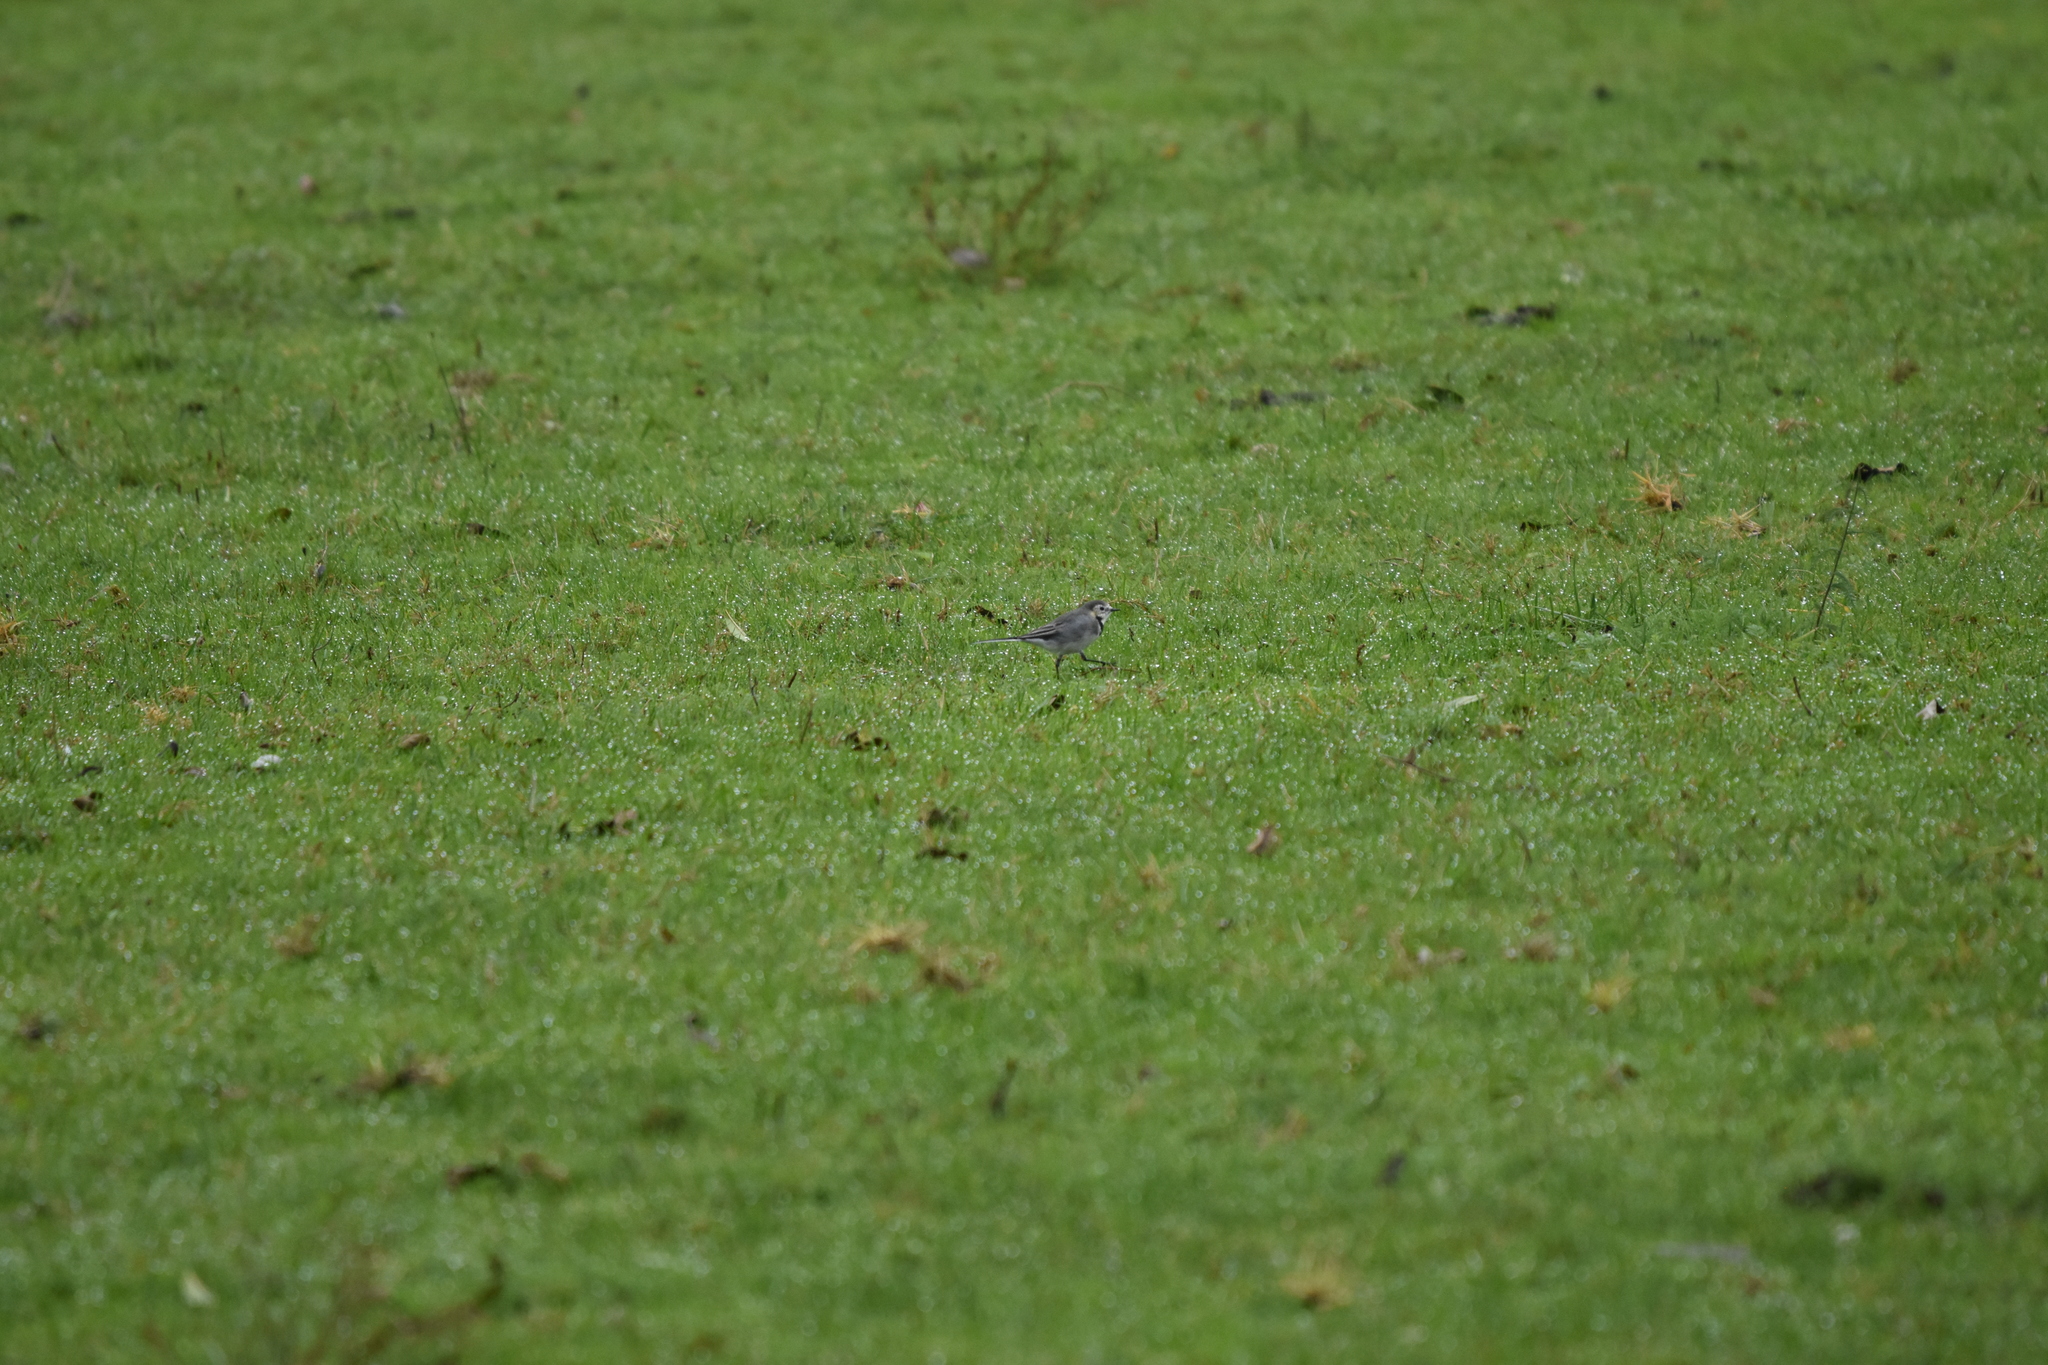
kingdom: Animalia
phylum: Chordata
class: Aves
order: Passeriformes
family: Motacillidae
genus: Motacilla
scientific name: Motacilla alba
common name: White wagtail
